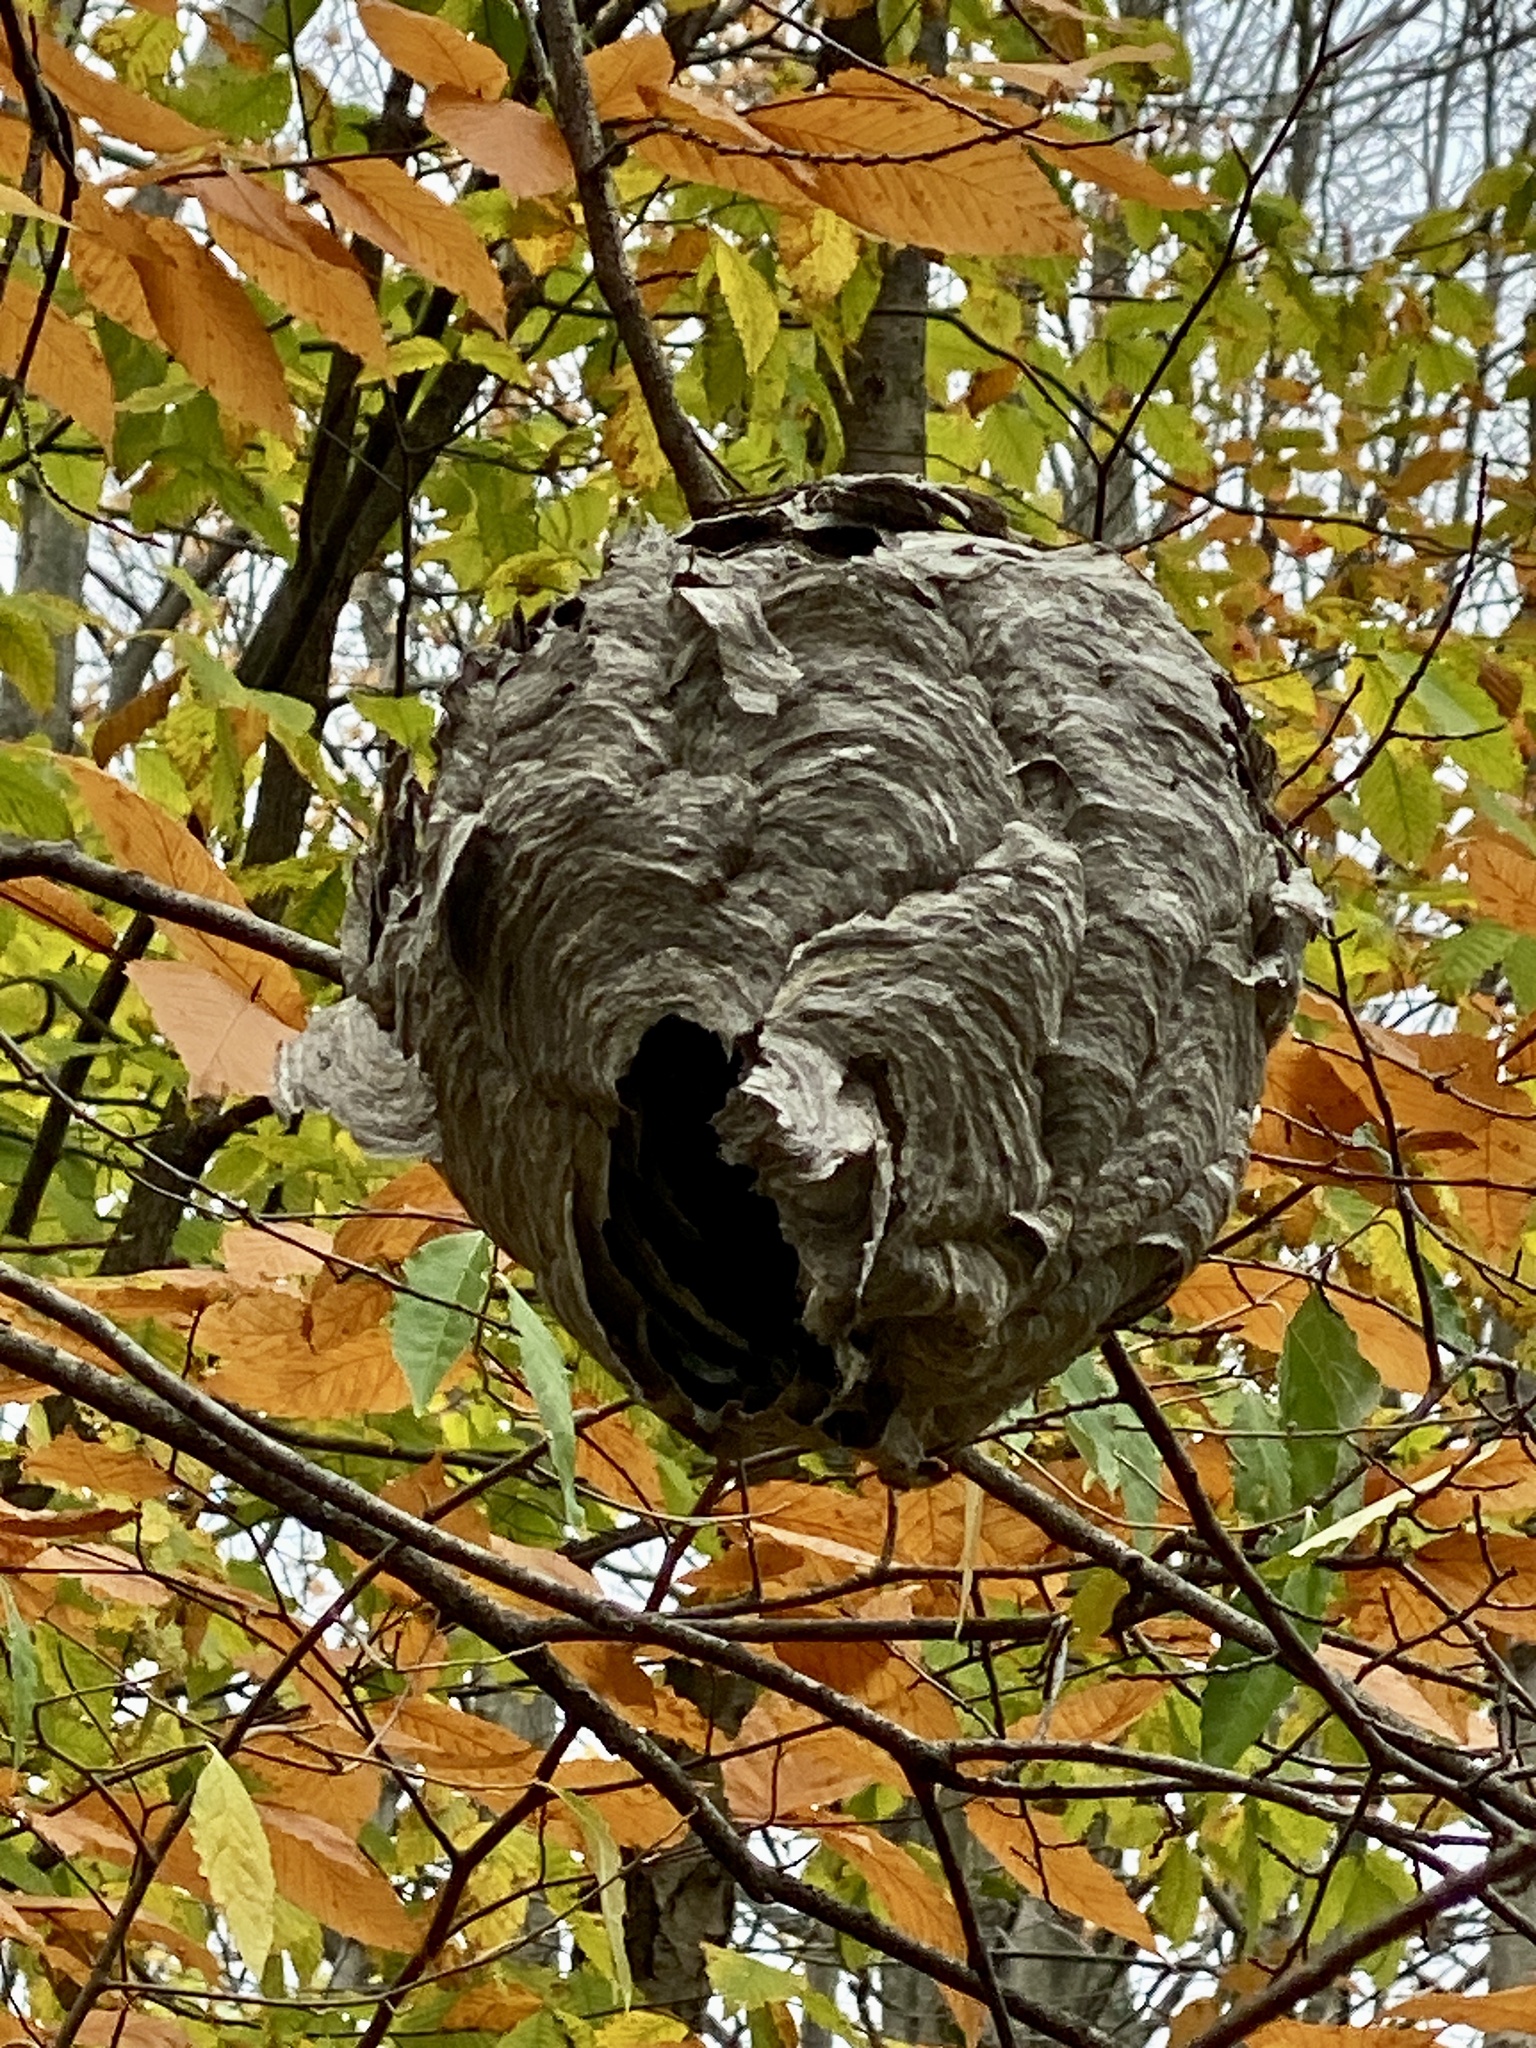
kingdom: Animalia
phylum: Arthropoda
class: Insecta
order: Hymenoptera
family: Vespidae
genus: Dolichovespula
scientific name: Dolichovespula maculata
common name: Bald-faced hornet
